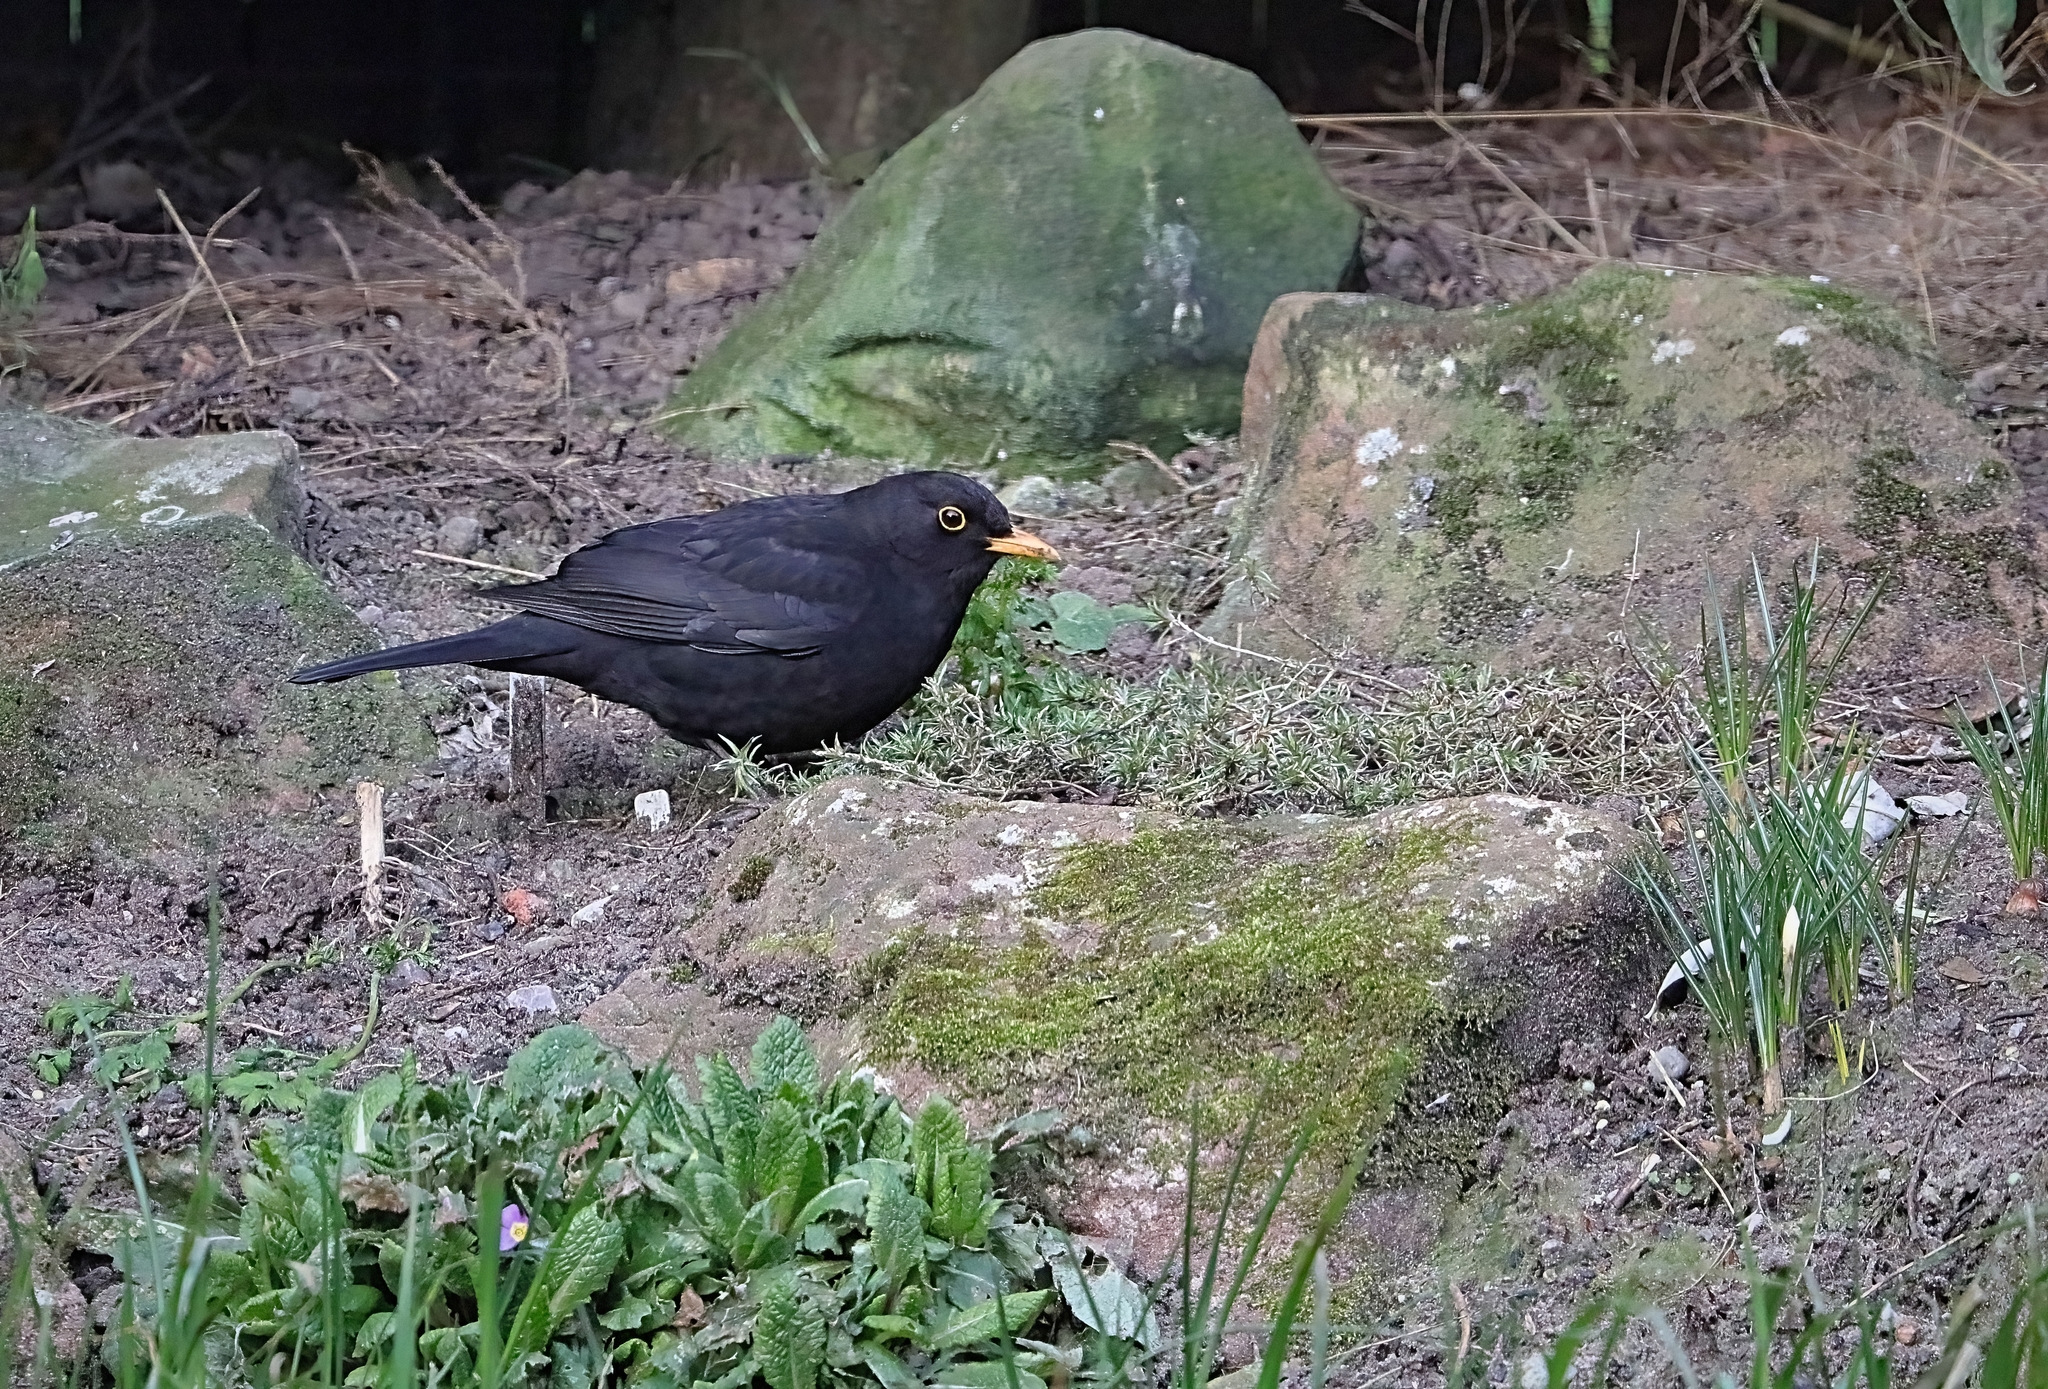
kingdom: Animalia
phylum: Chordata
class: Aves
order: Passeriformes
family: Turdidae
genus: Turdus
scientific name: Turdus merula
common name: Common blackbird
